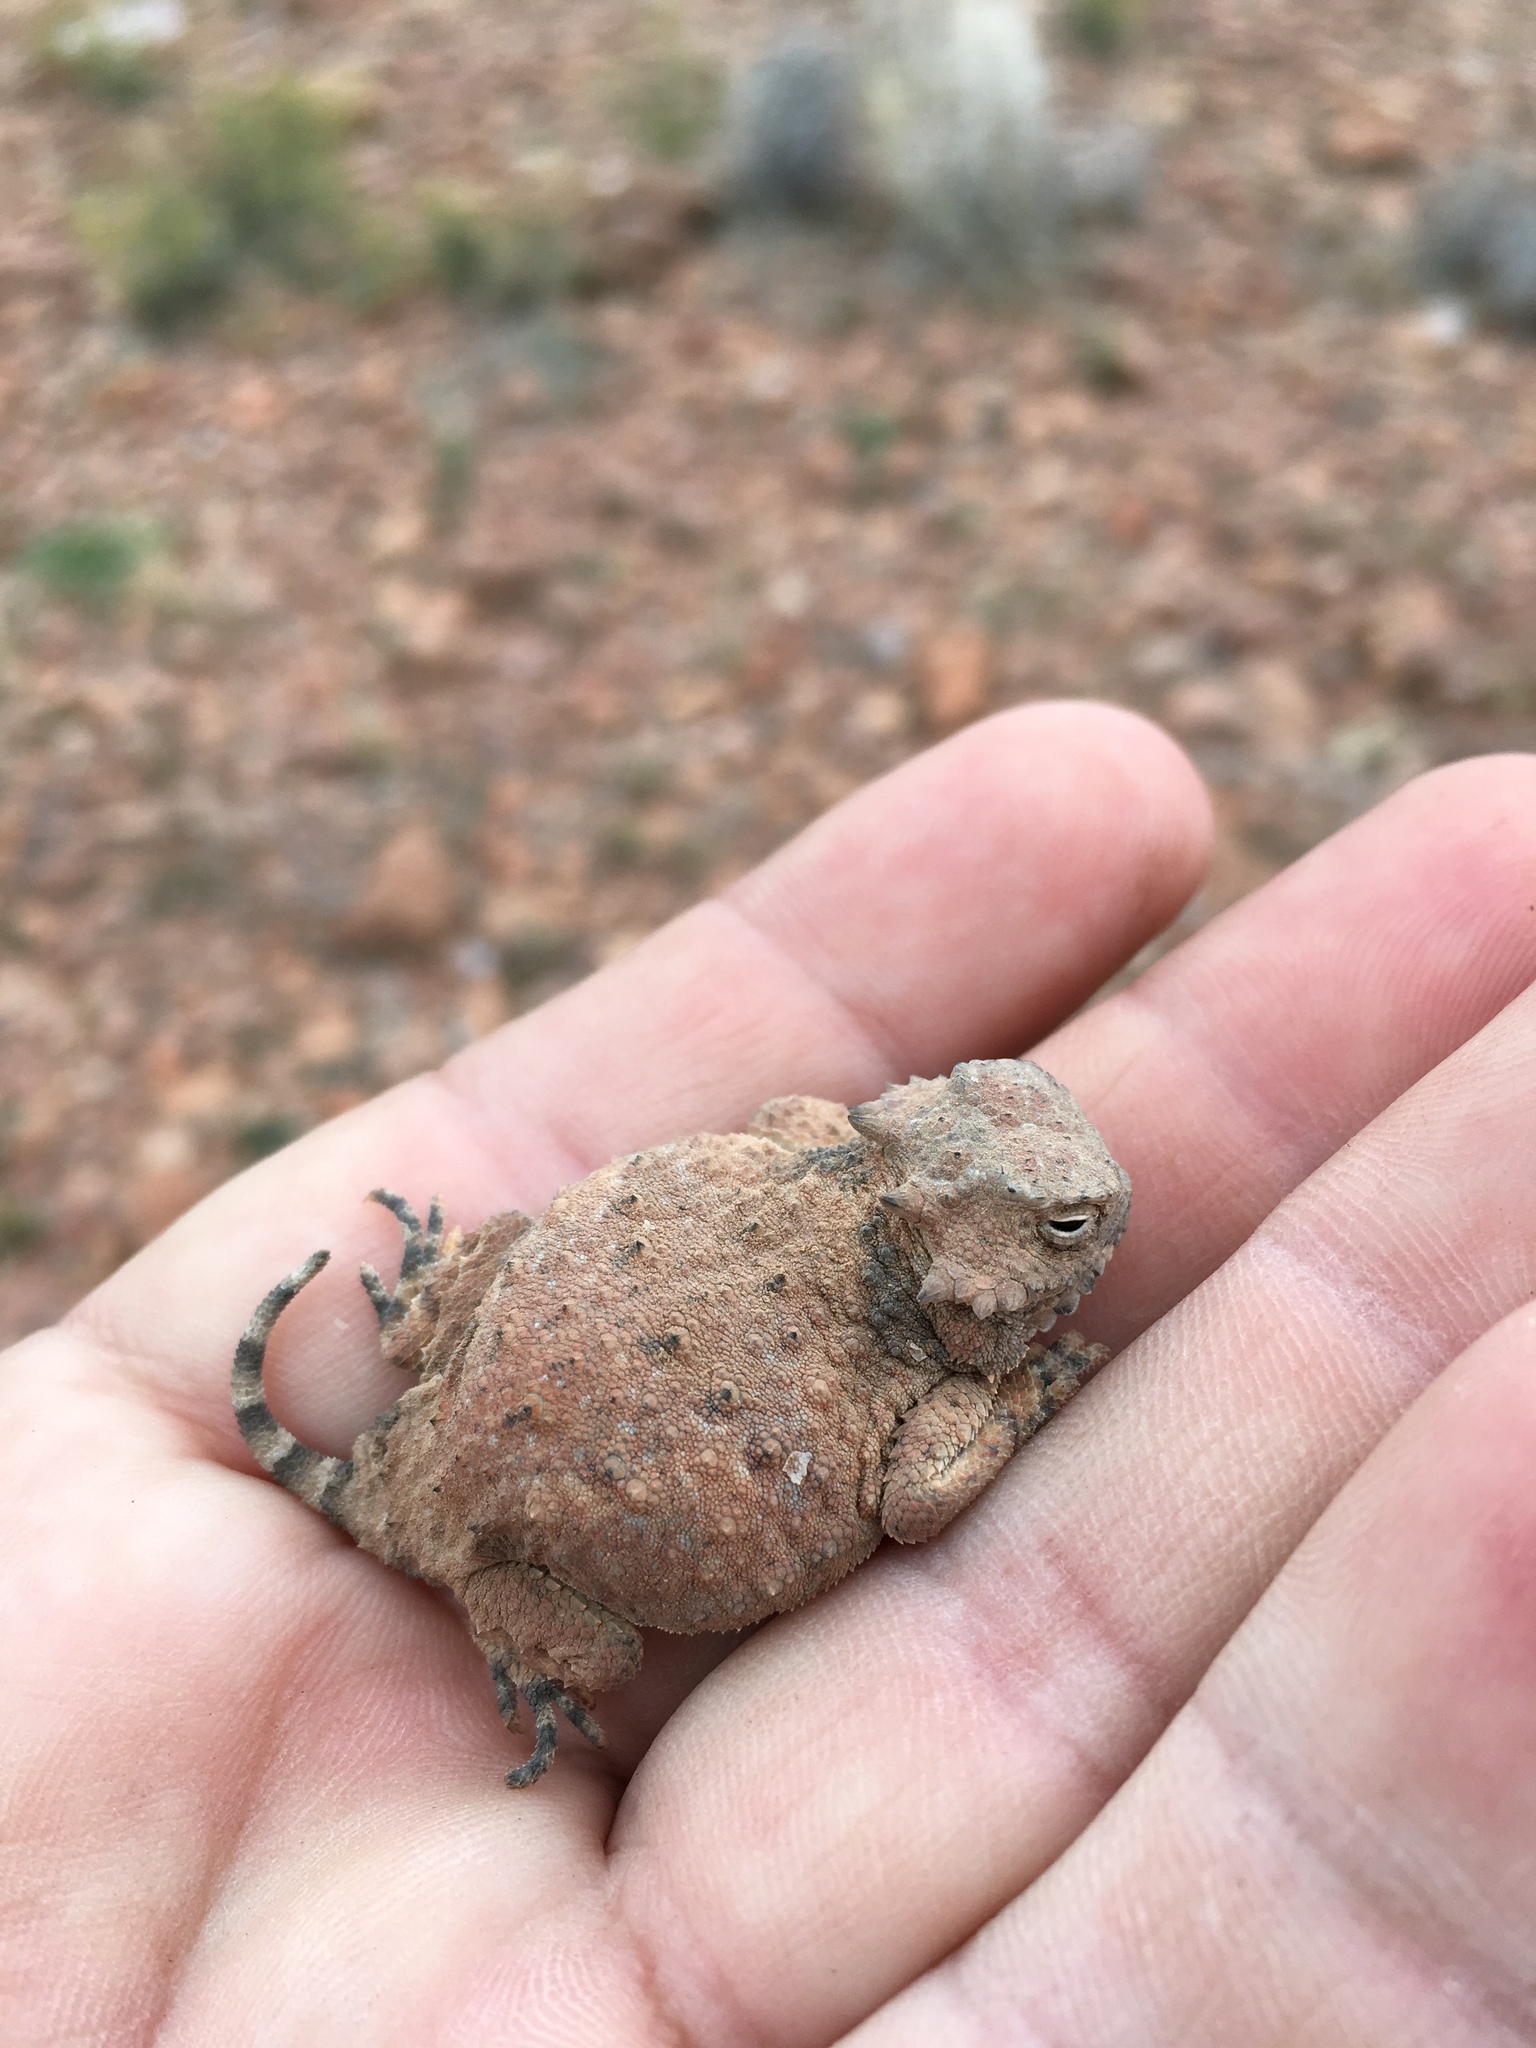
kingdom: Animalia
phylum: Chordata
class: Squamata
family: Phrynosomatidae
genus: Phrynosoma
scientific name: Phrynosoma modestum
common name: Roundtail horned lizard
